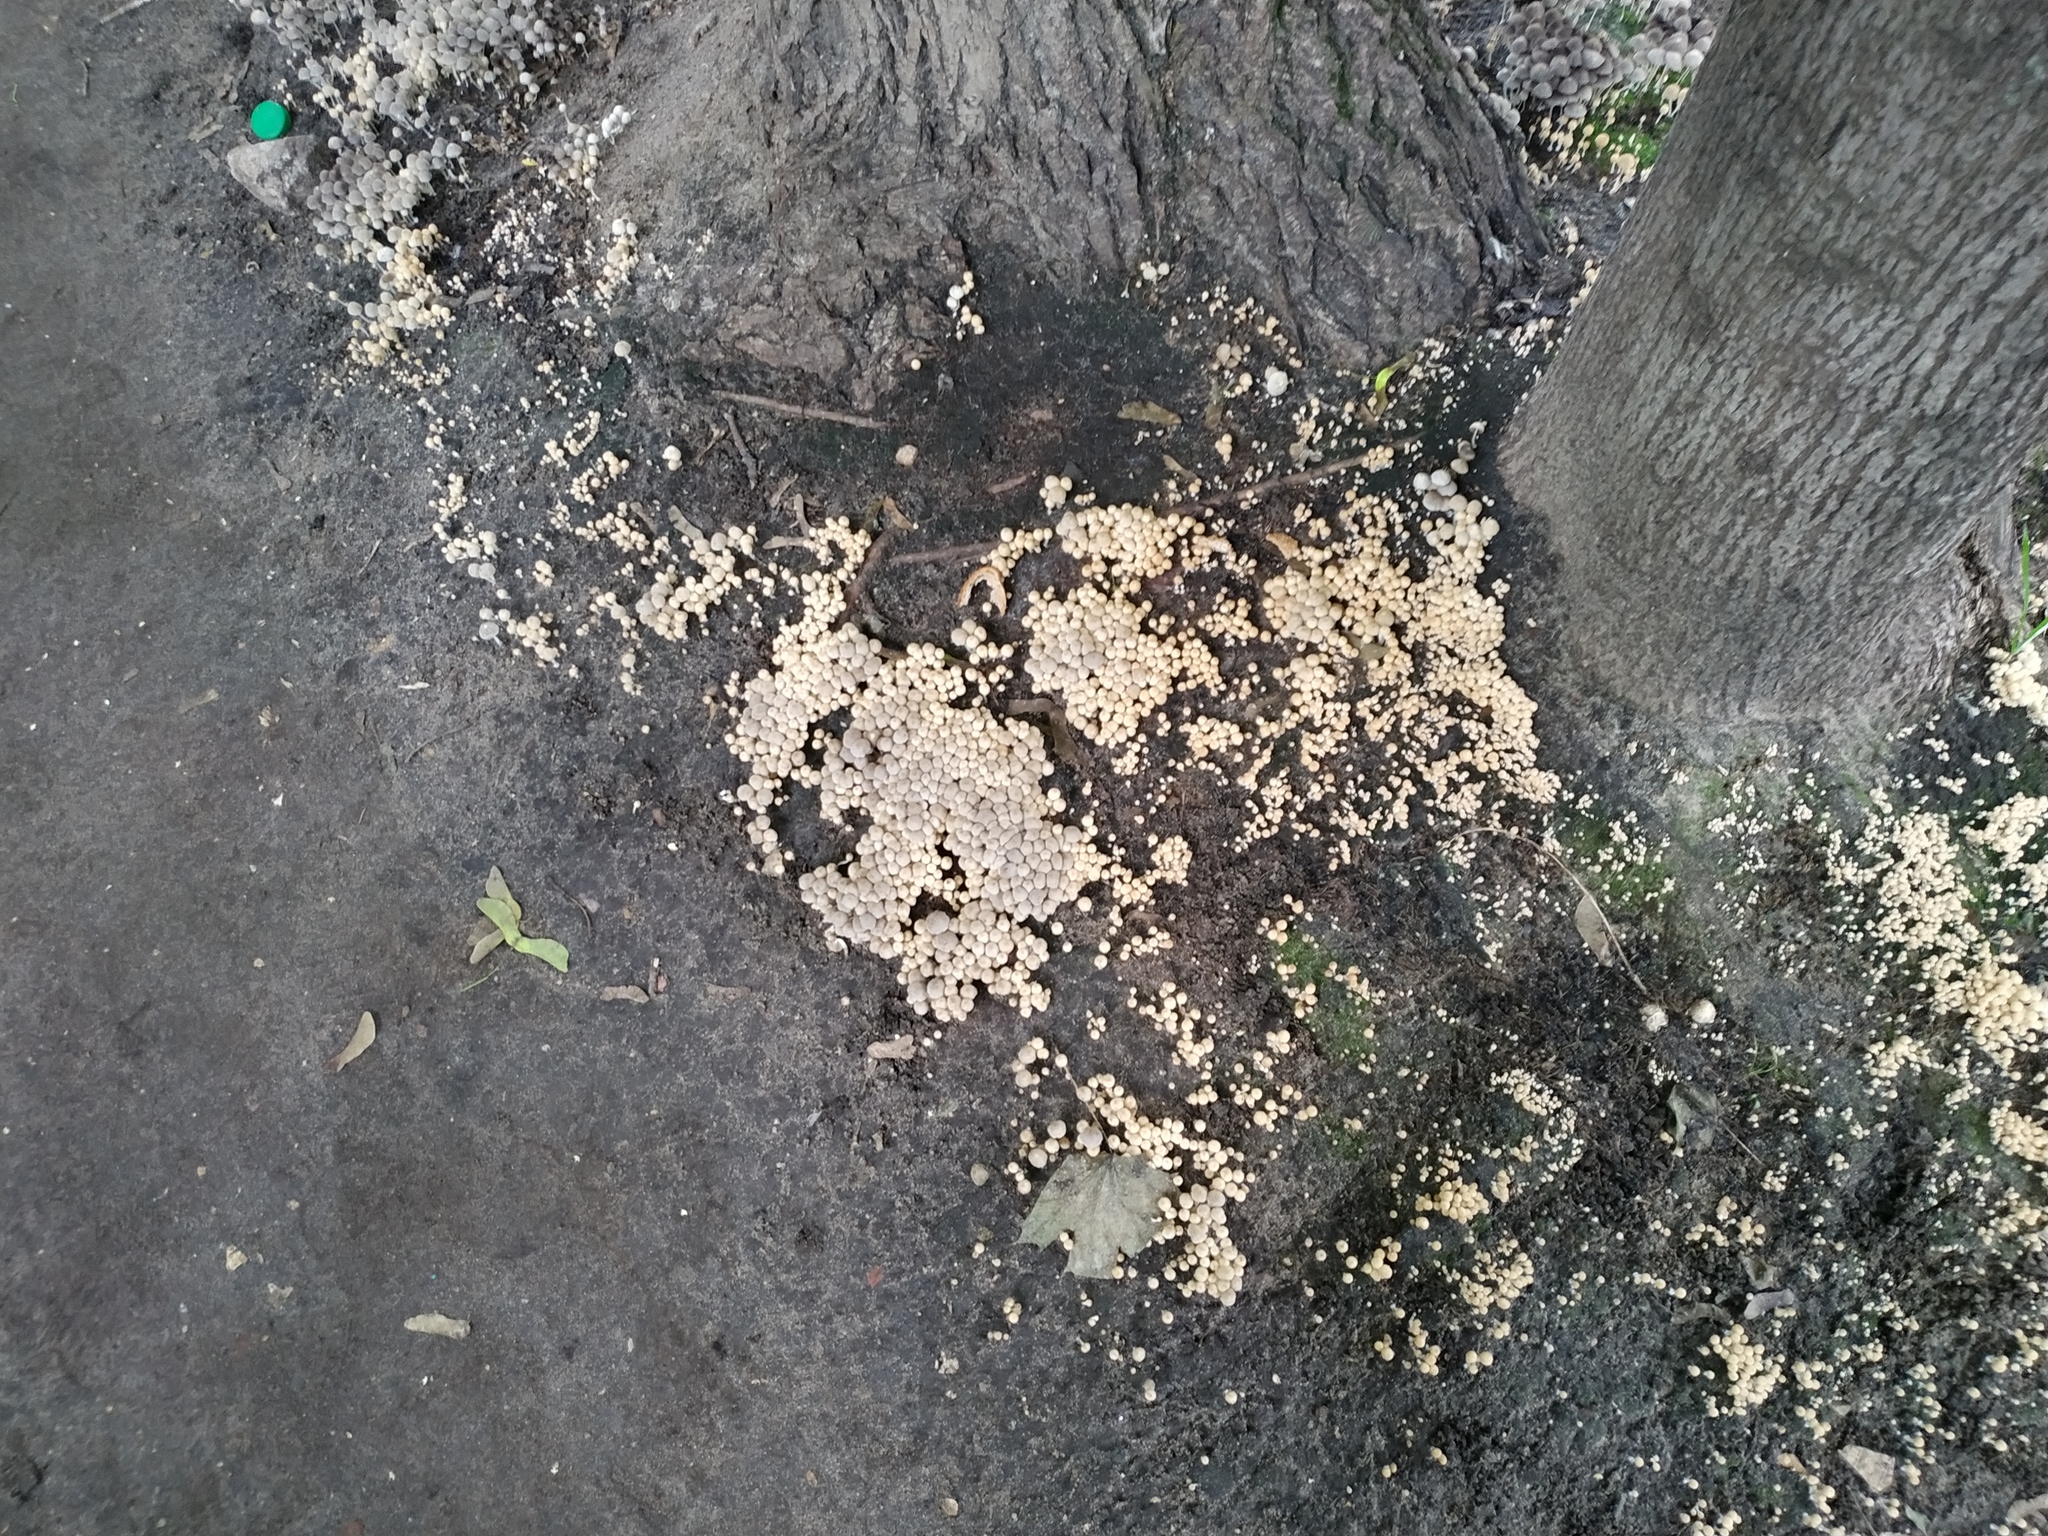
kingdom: Fungi
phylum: Basidiomycota
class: Agaricomycetes
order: Agaricales
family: Psathyrellaceae
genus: Coprinellus
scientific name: Coprinellus disseminatus
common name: Fairies' bonnets
